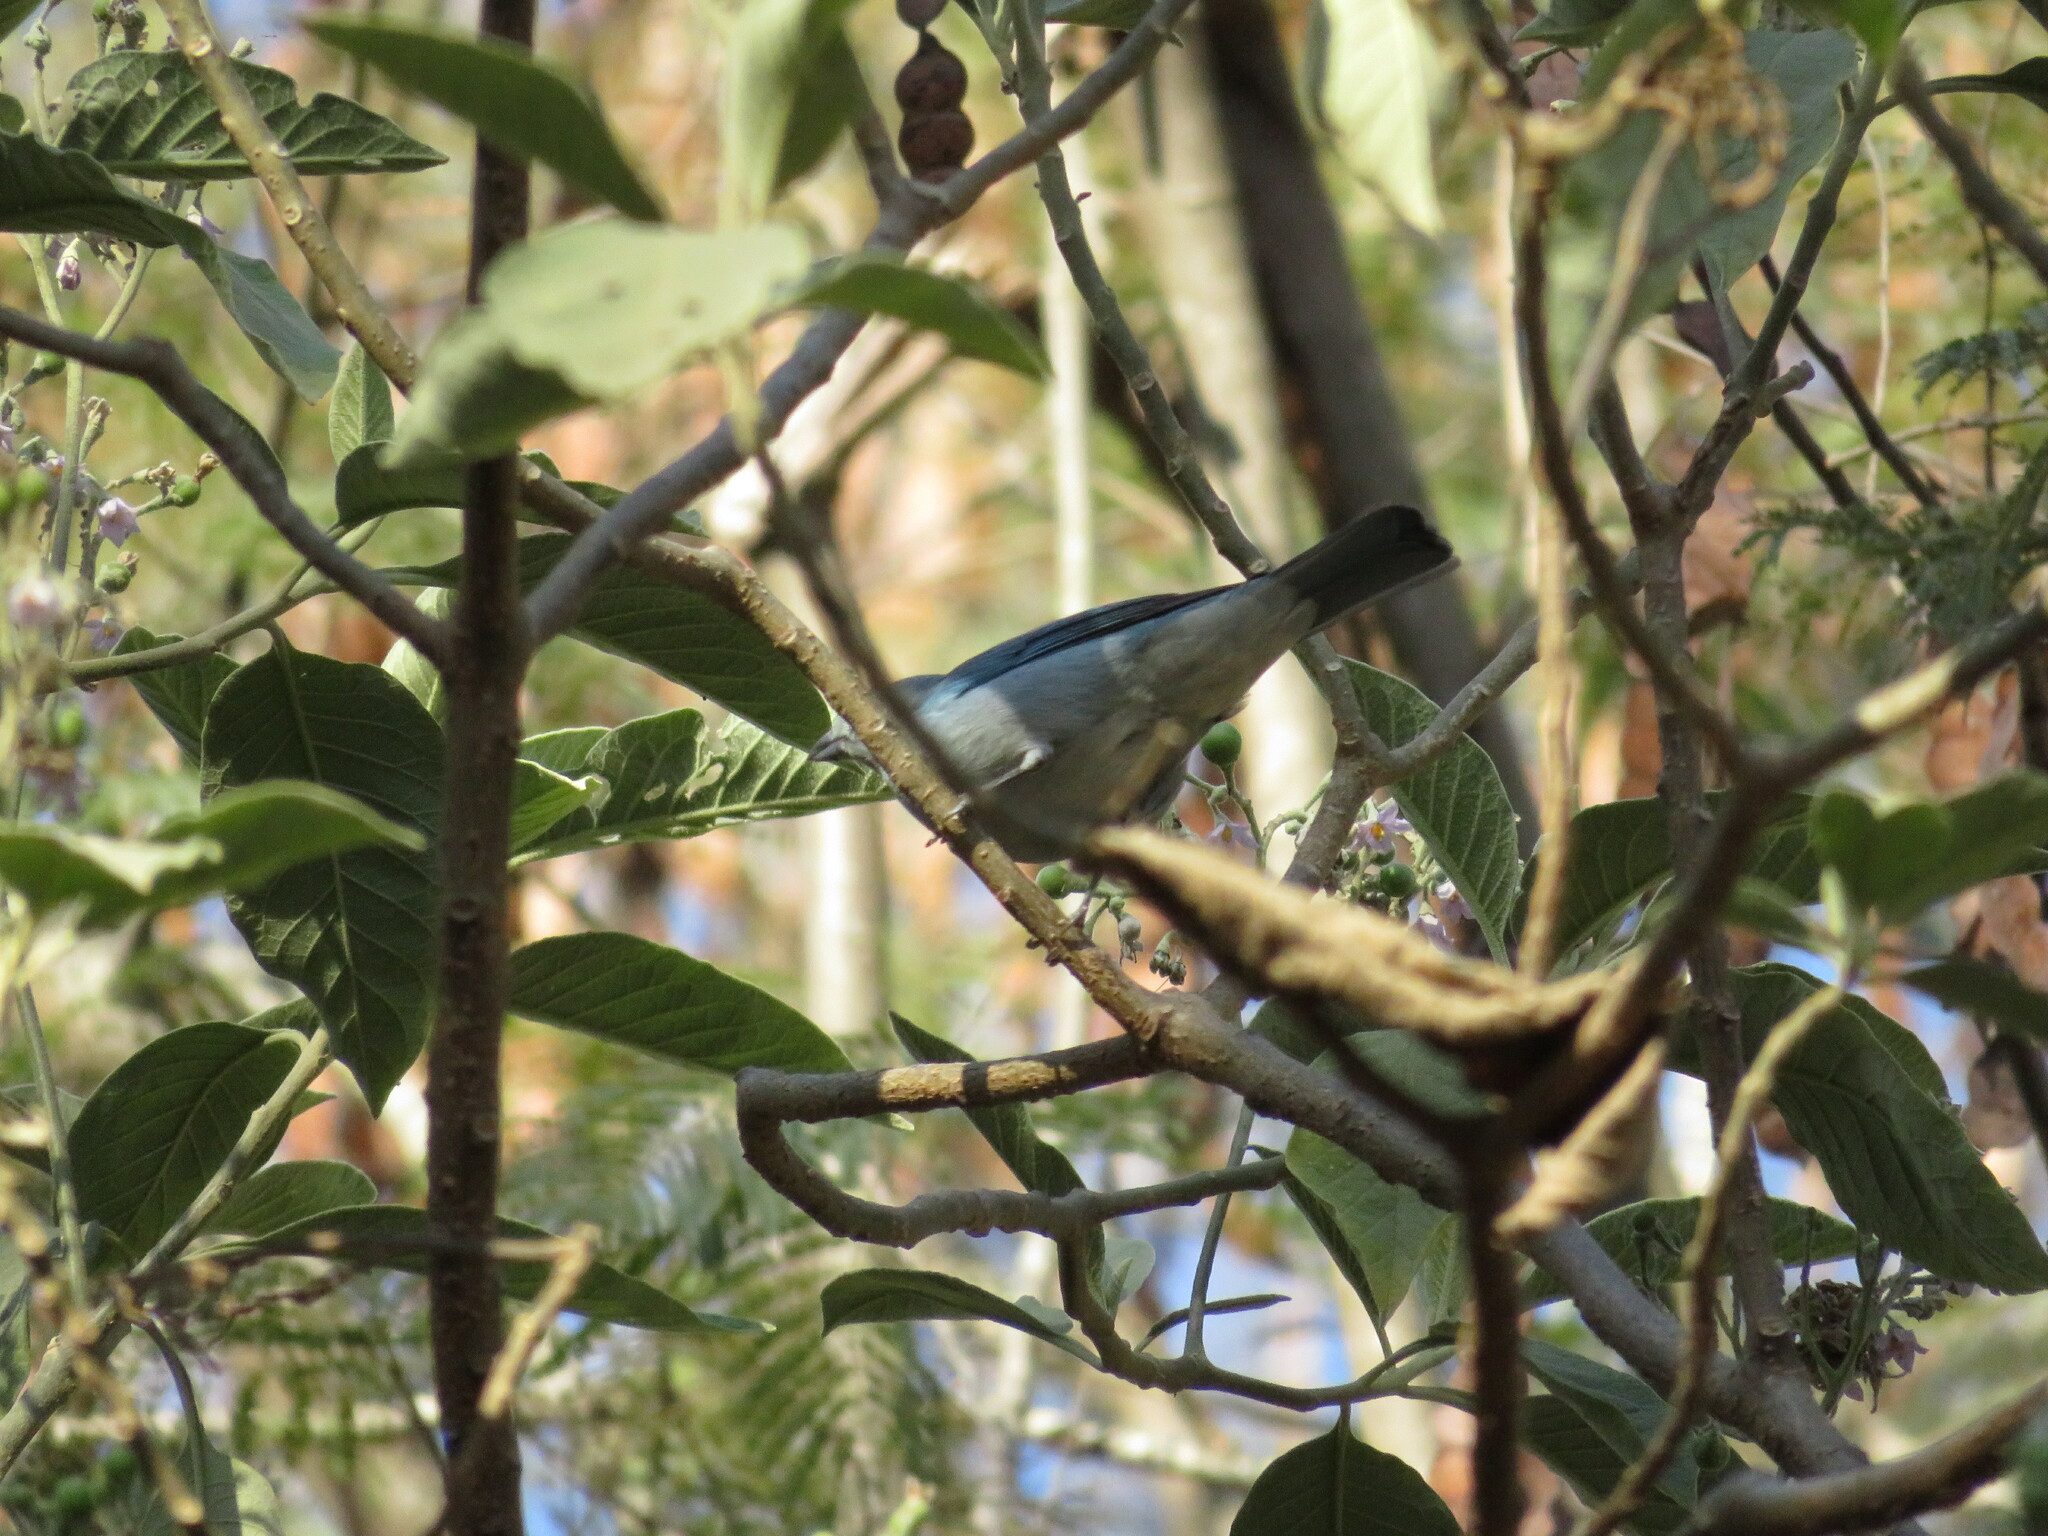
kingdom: Animalia
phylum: Chordata
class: Aves
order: Passeriformes
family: Thraupidae
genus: Thraupis
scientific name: Thraupis sayaca
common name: Sayaca tanager
